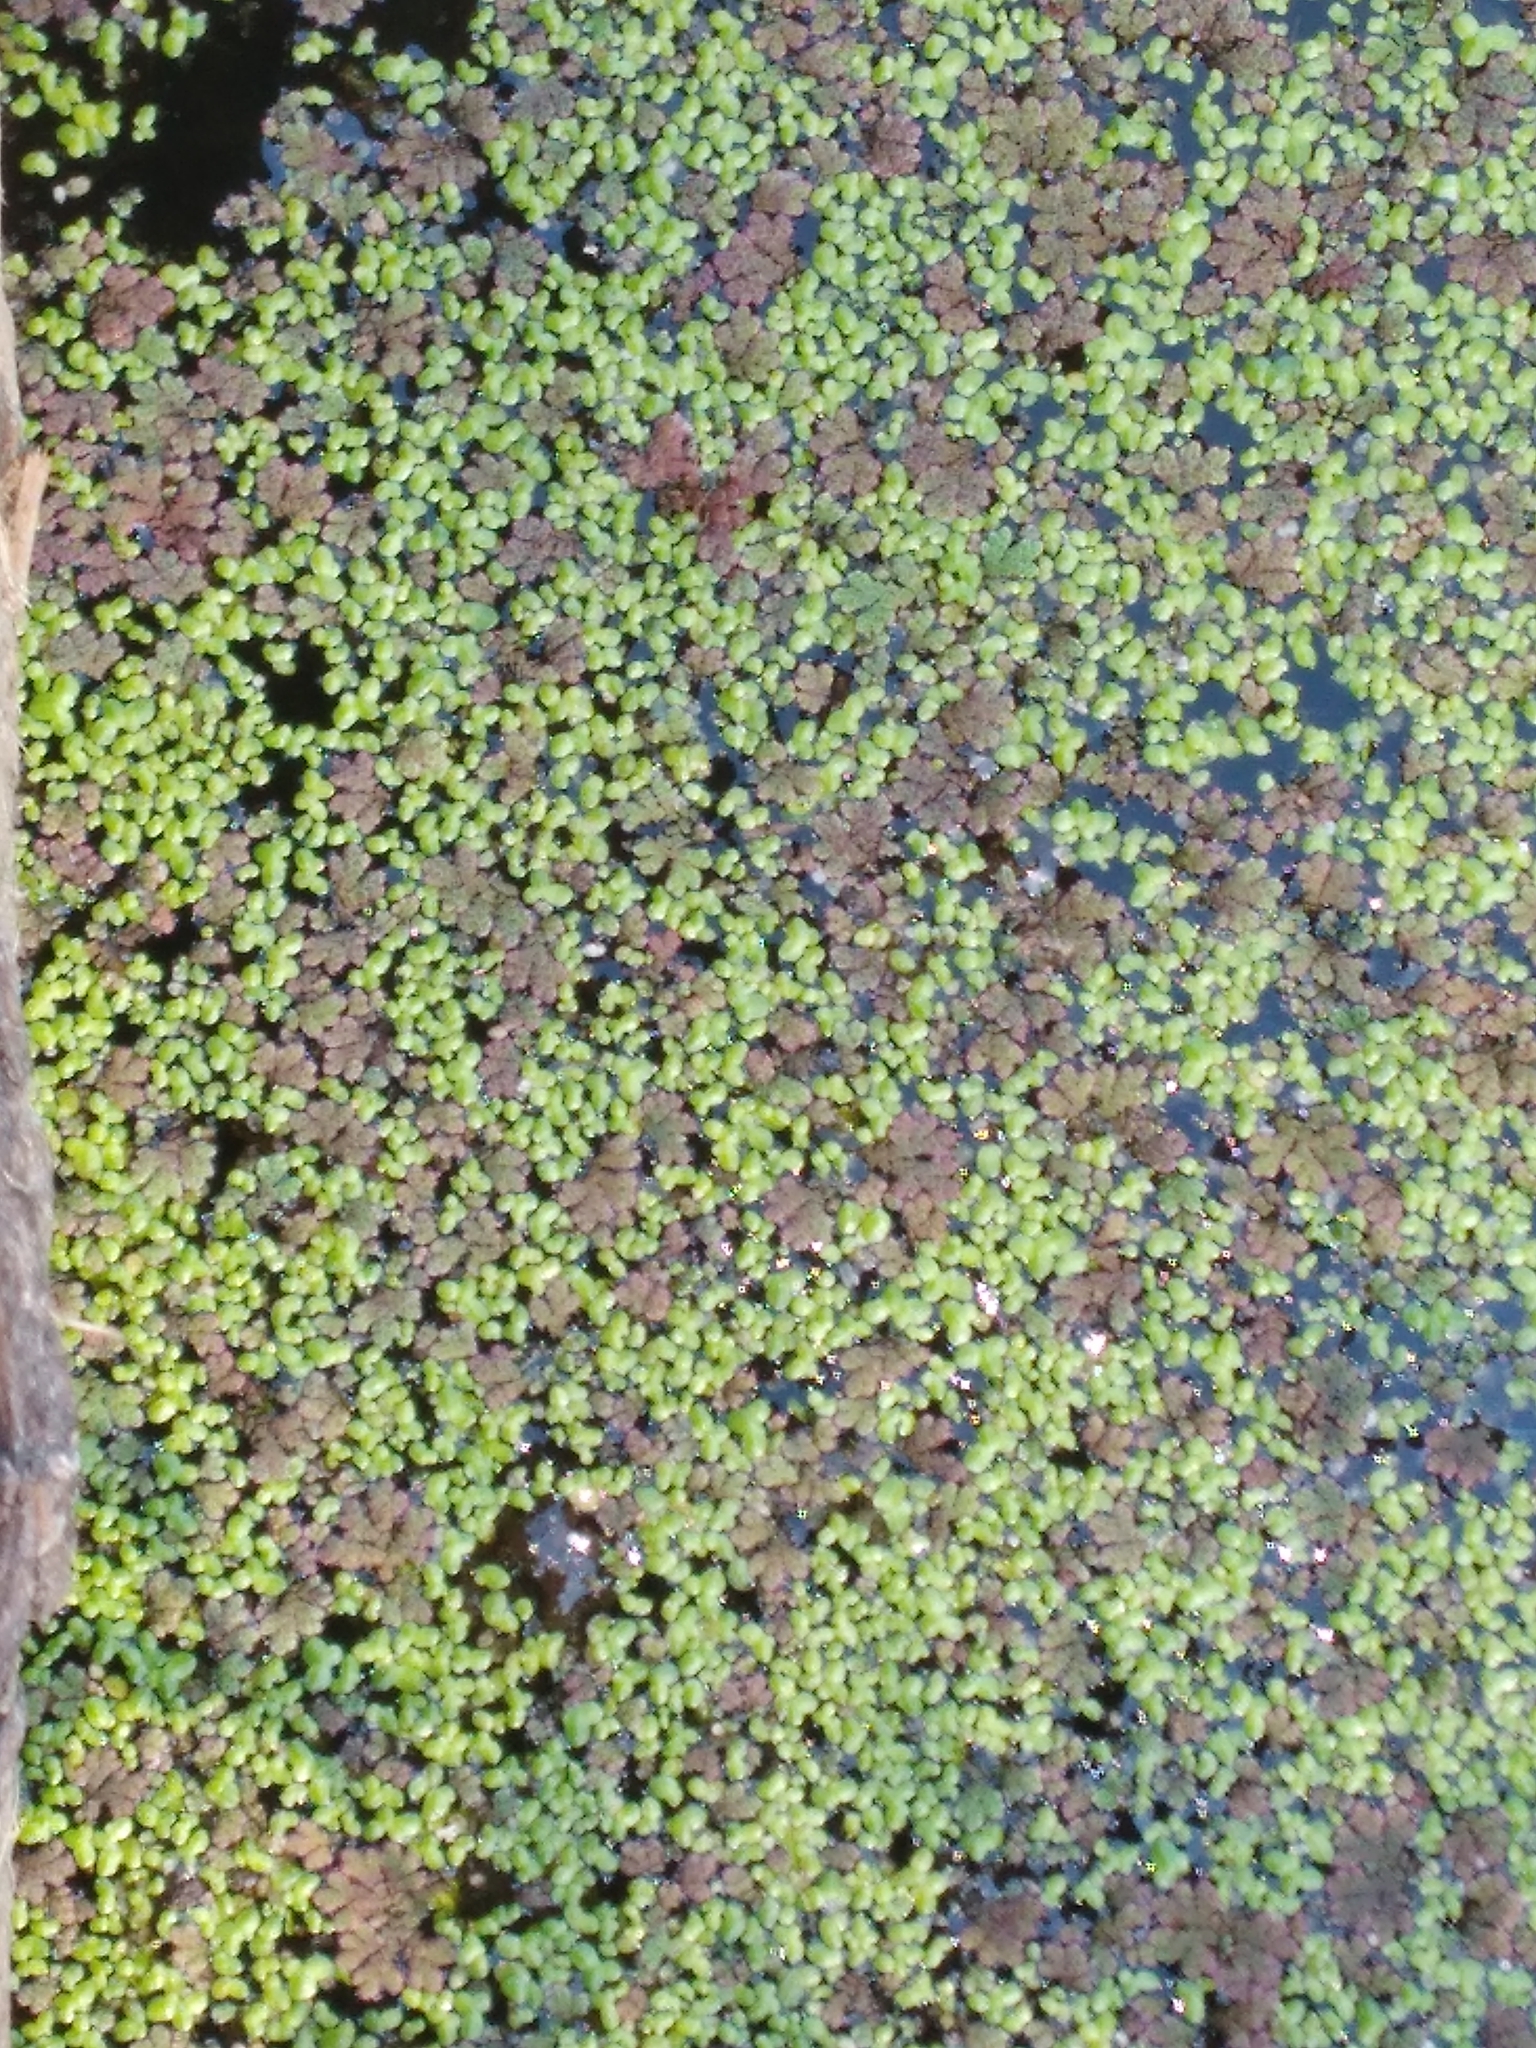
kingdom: Plantae
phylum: Tracheophyta
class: Polypodiopsida
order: Salviniales
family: Salviniaceae
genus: Azolla
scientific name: Azolla rubra
